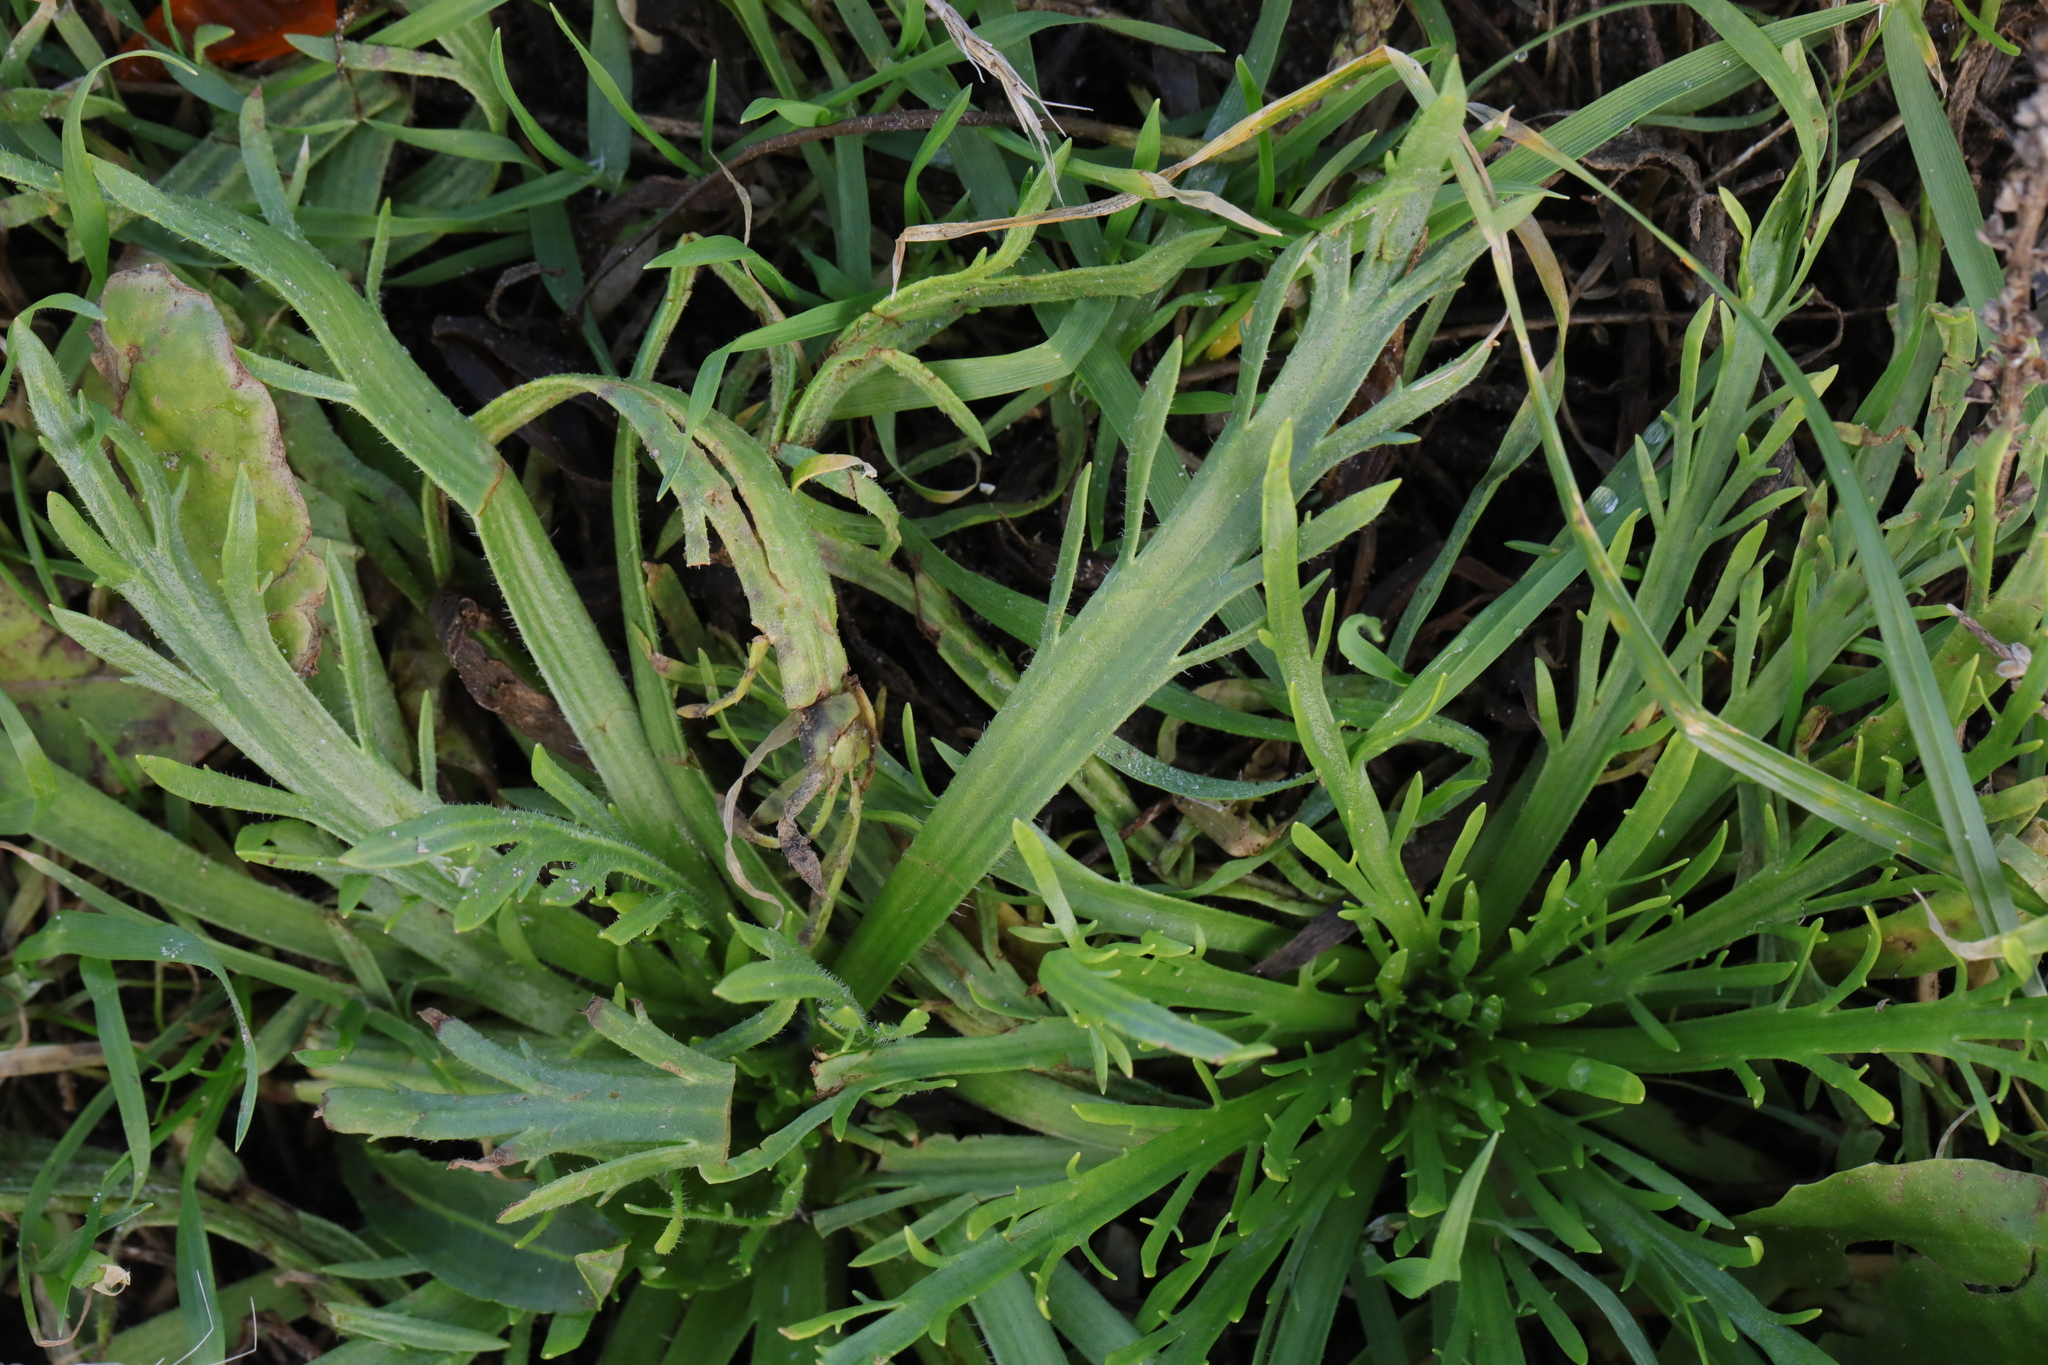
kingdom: Plantae
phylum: Tracheophyta
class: Magnoliopsida
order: Lamiales
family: Plantaginaceae
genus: Plantago
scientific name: Plantago coronopus
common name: Buck's-horn plantain
